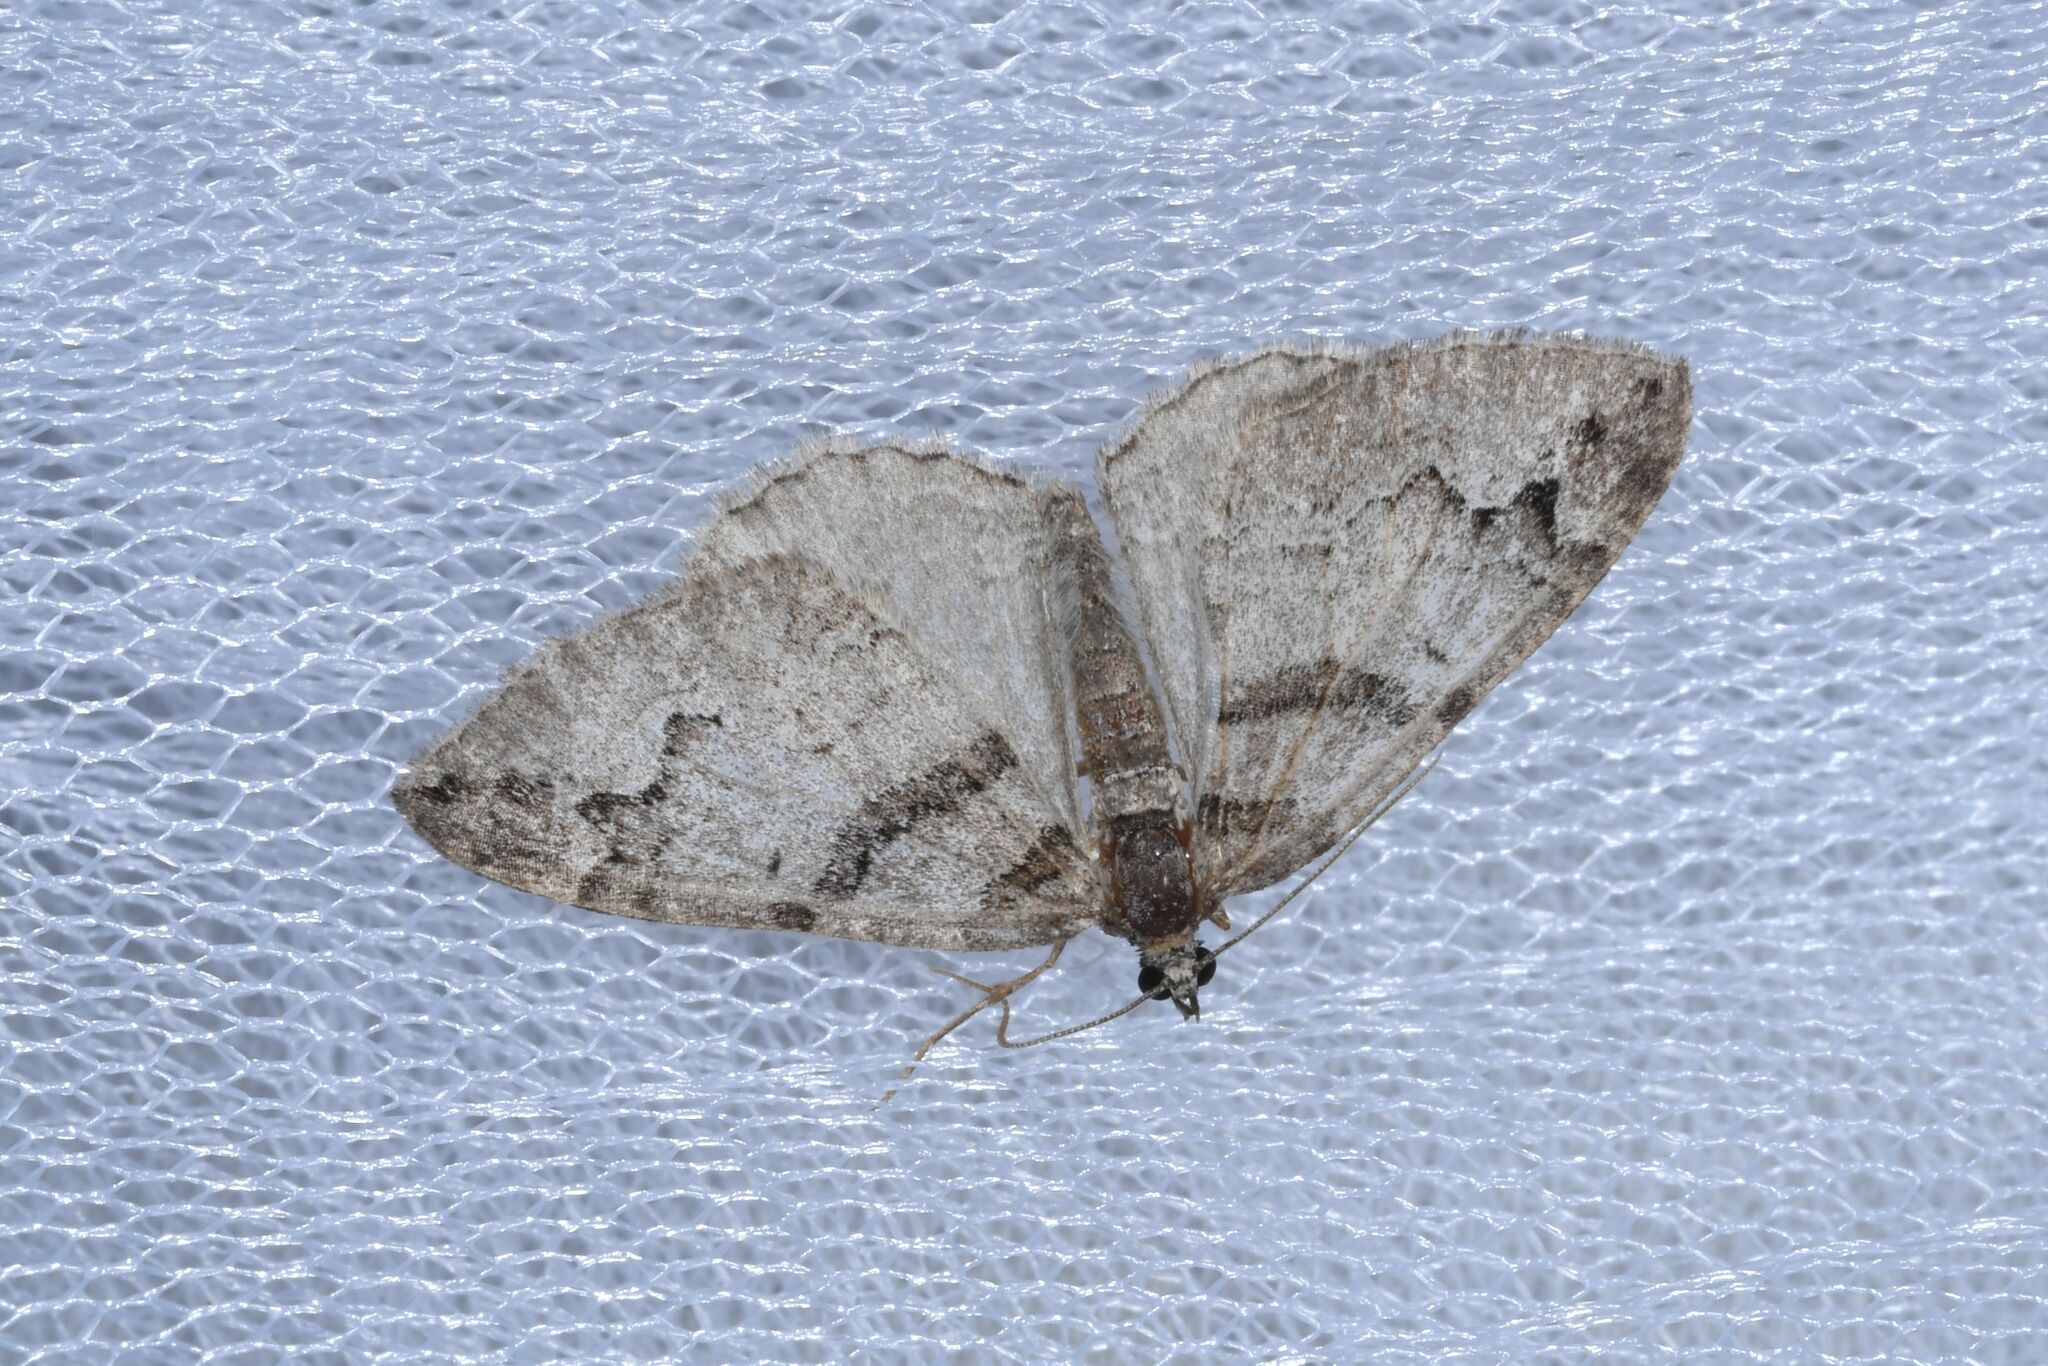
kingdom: Animalia
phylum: Arthropoda
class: Insecta
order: Lepidoptera
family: Geometridae
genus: Pareulype
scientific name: Pareulype berberata
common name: Barberry carpet
